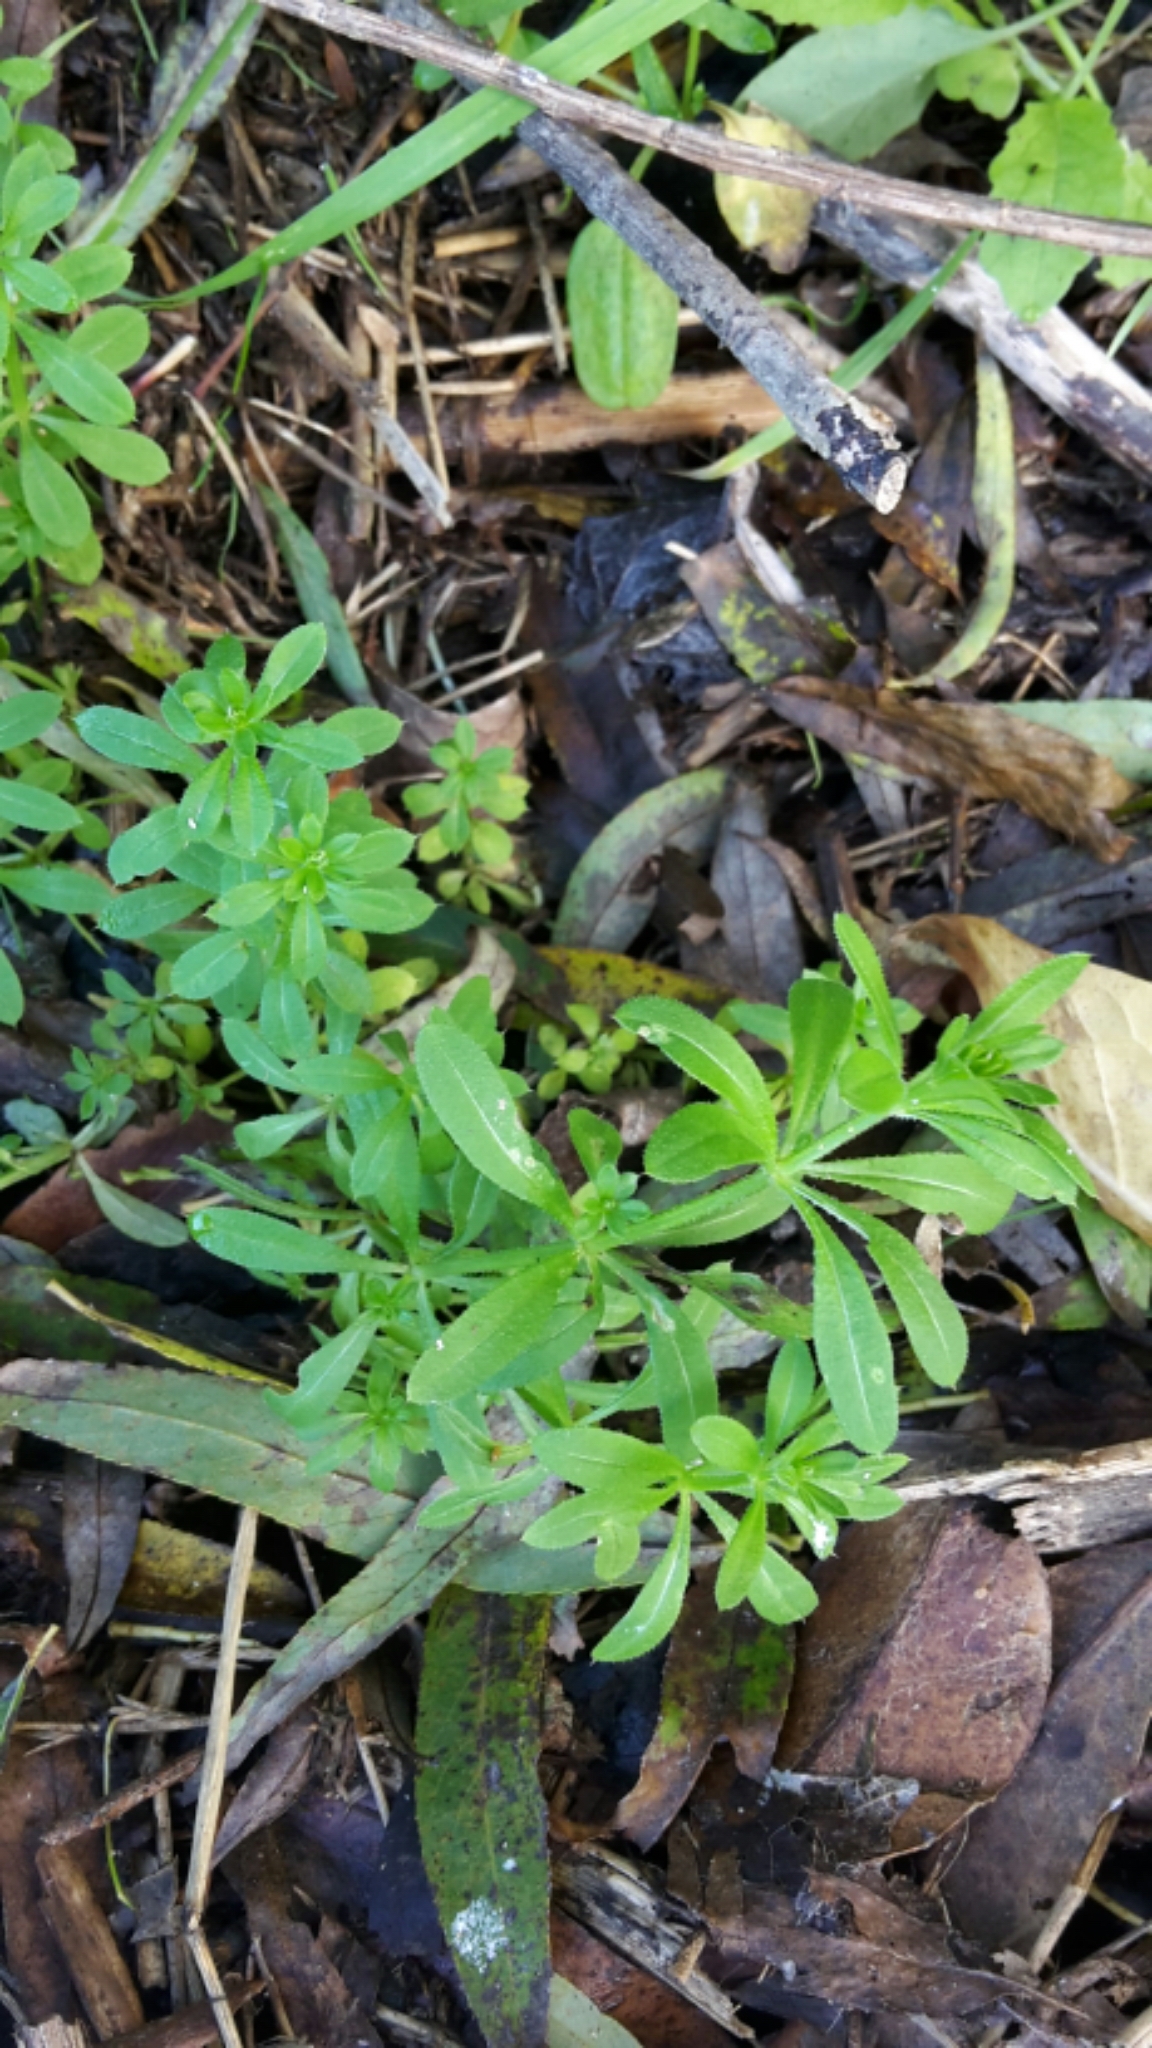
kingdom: Plantae
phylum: Tracheophyta
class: Magnoliopsida
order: Gentianales
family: Rubiaceae
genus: Galium
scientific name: Galium aparine
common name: Cleavers
